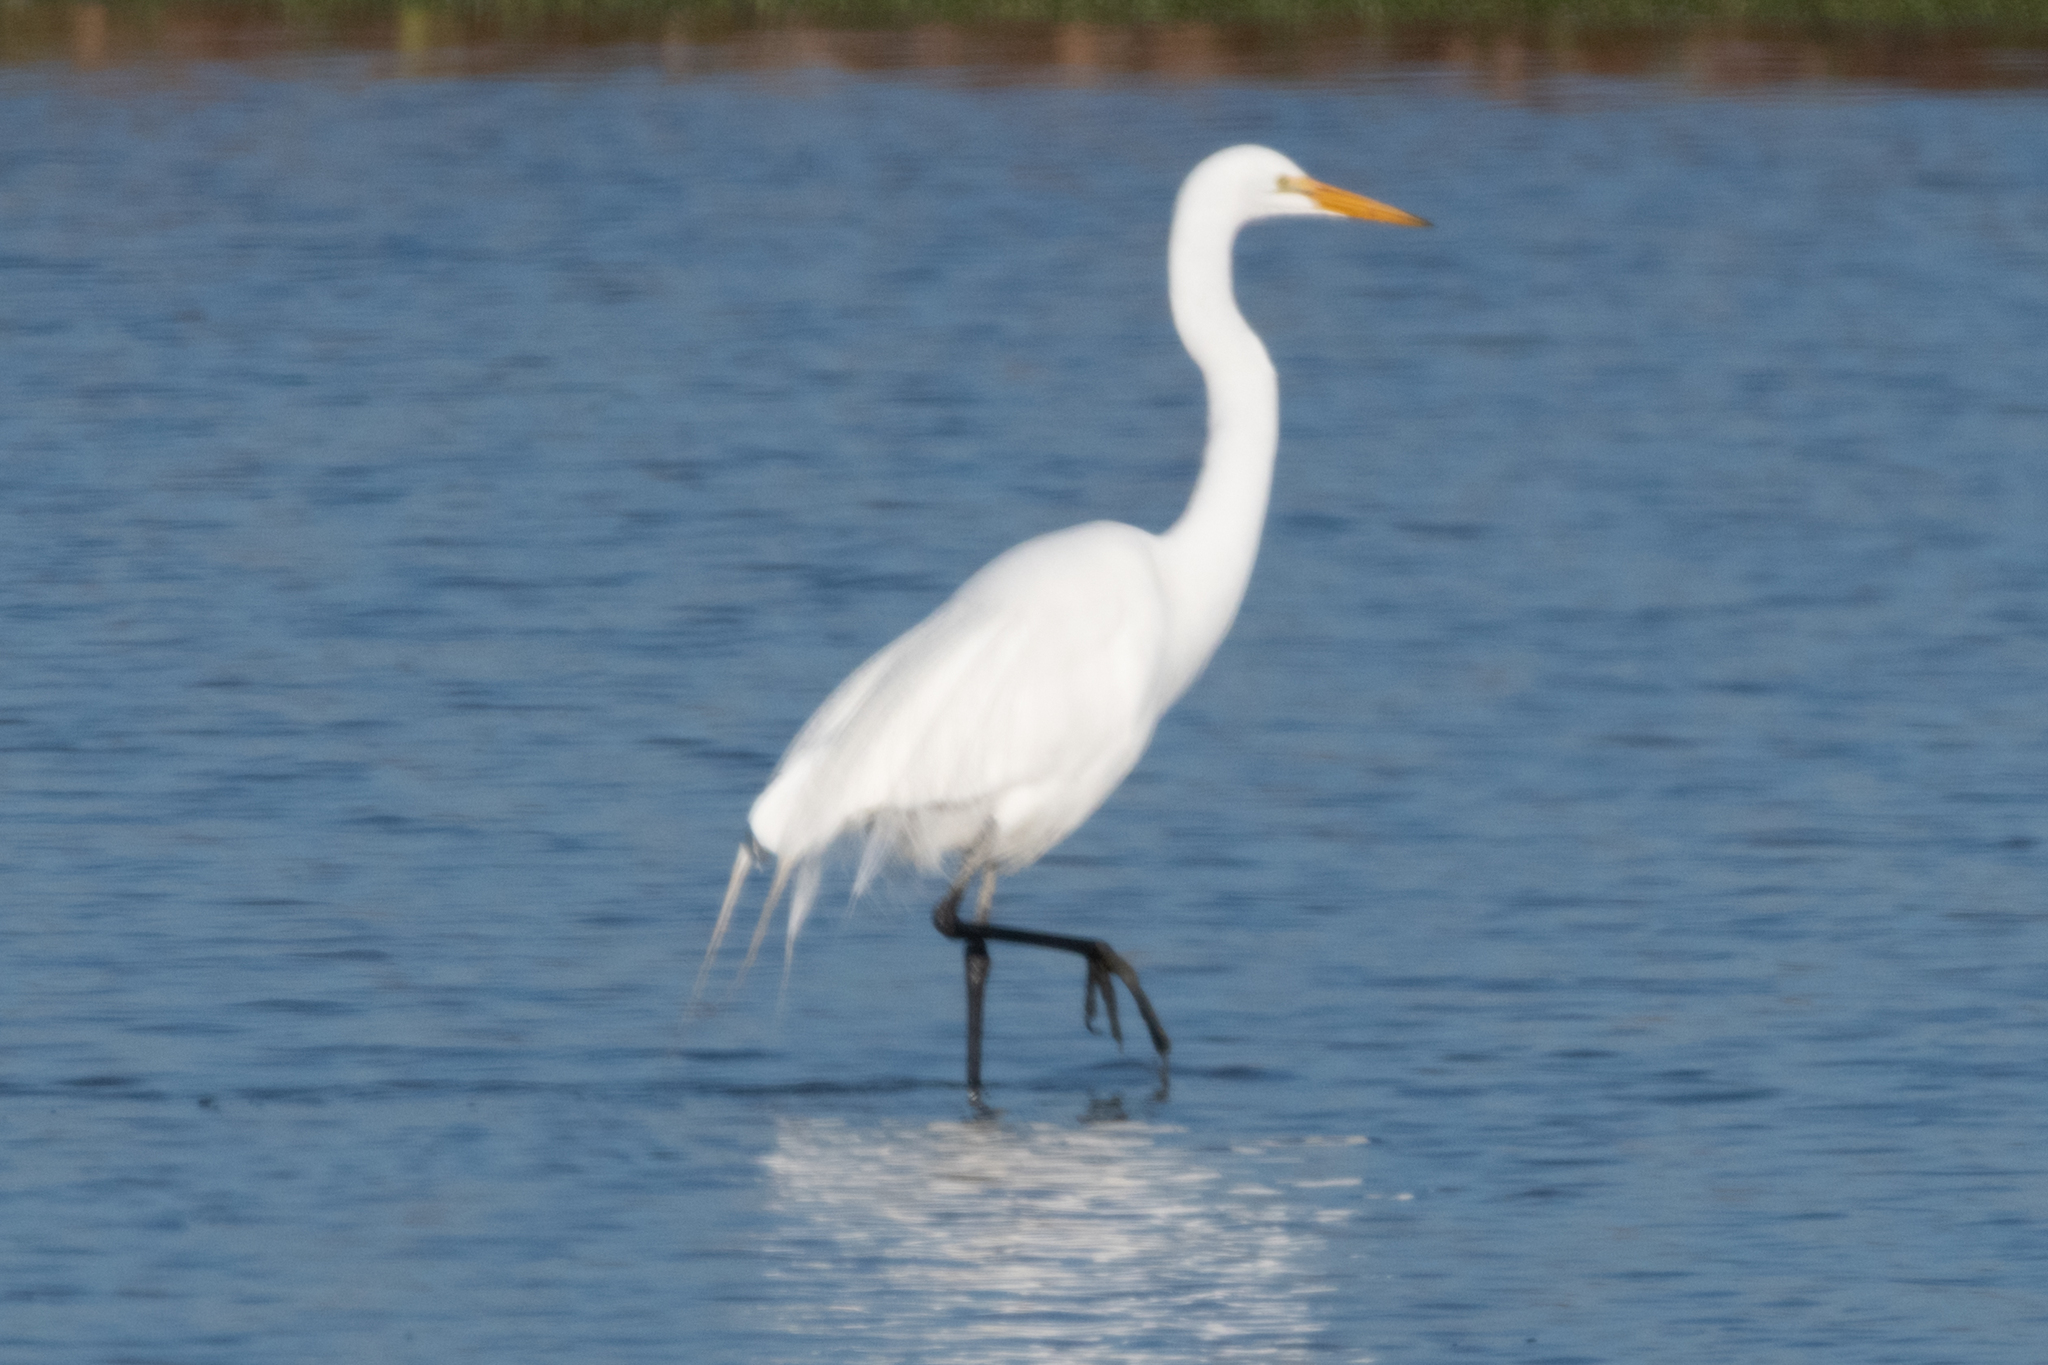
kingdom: Animalia
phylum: Chordata
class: Aves
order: Pelecaniformes
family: Ardeidae
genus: Ardea
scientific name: Ardea alba
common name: Great egret
